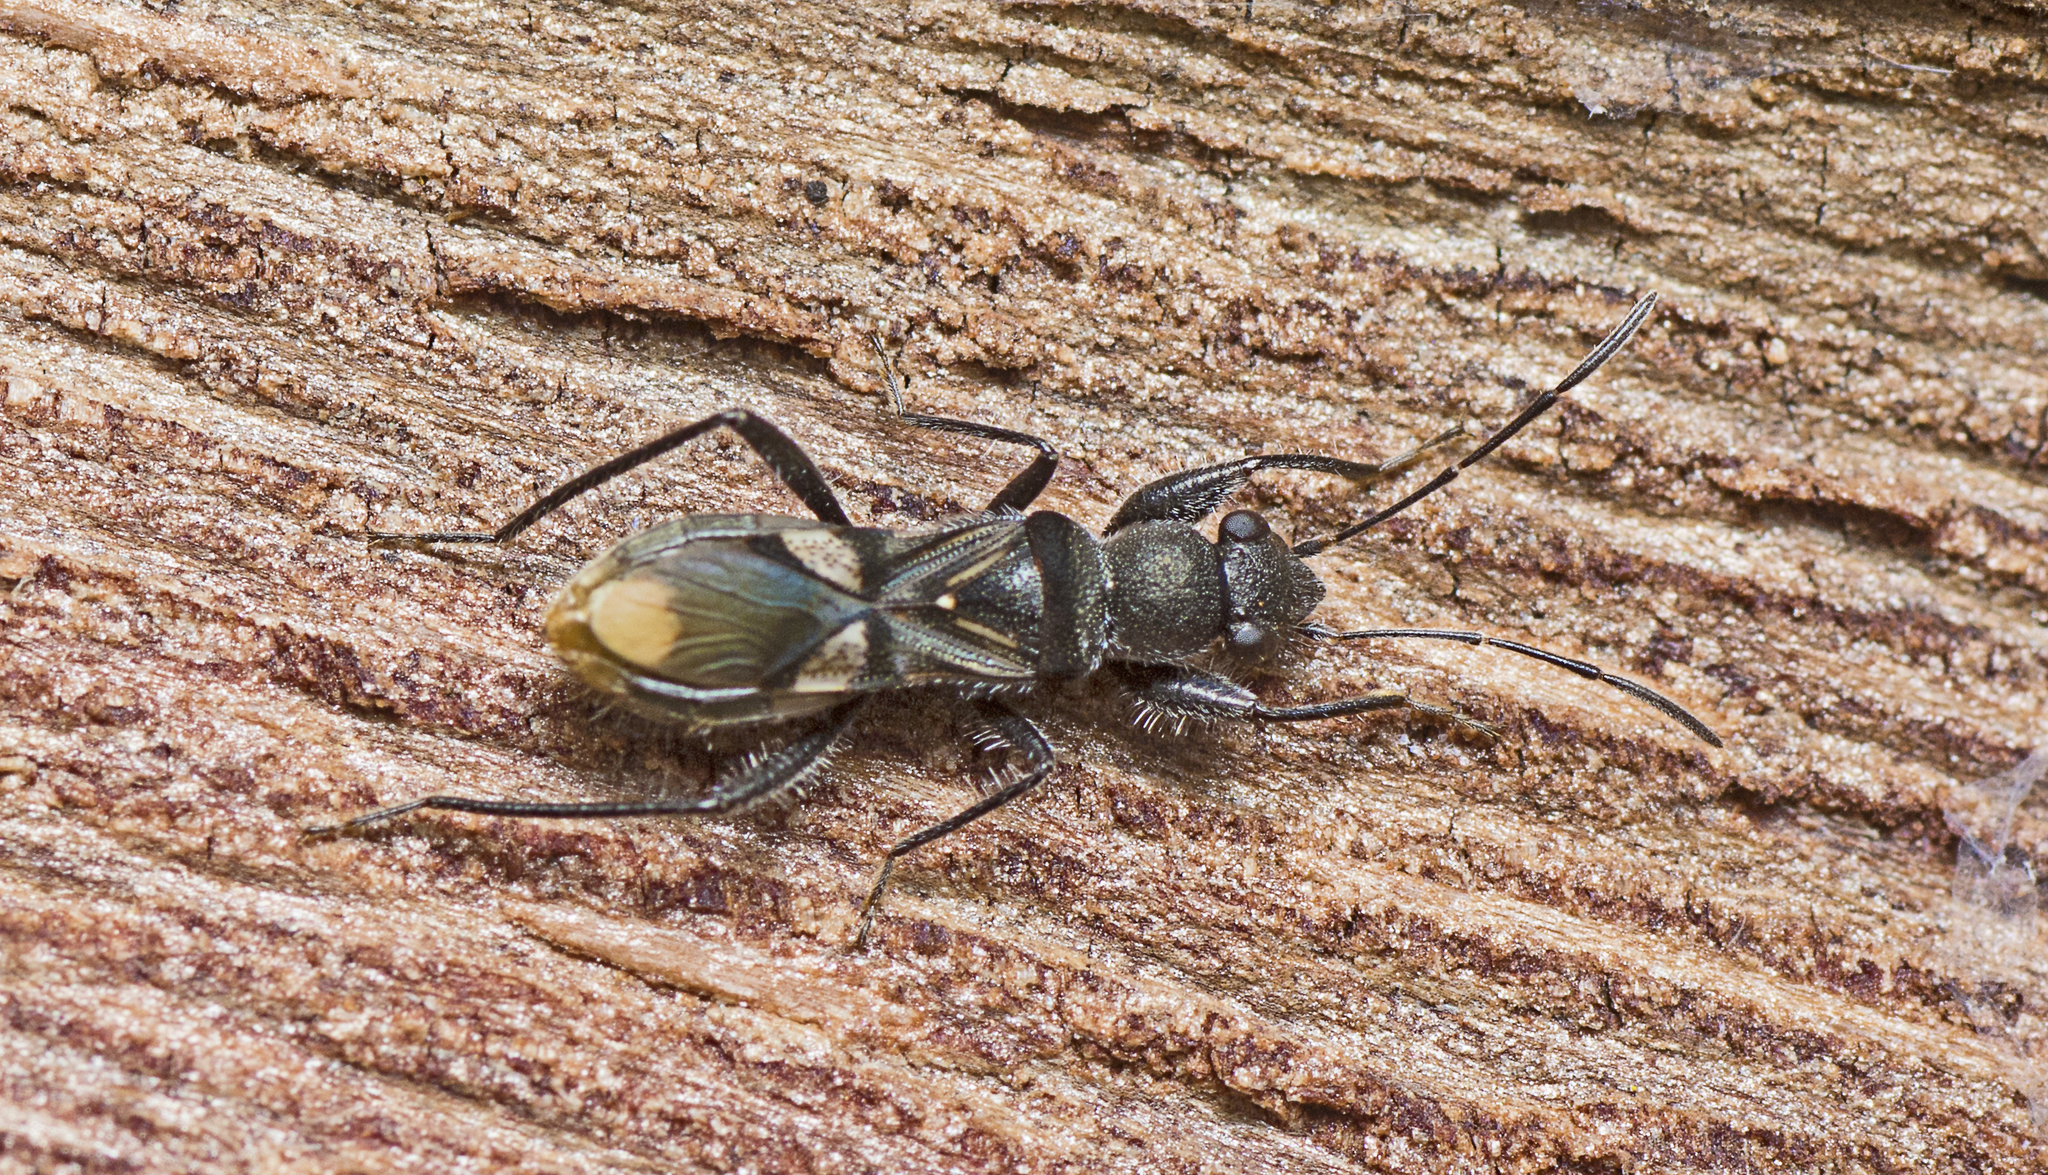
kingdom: Animalia
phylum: Arthropoda
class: Insecta
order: Hemiptera
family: Rhyparochromidae
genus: Daerlac
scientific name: Daerlac apicalis
